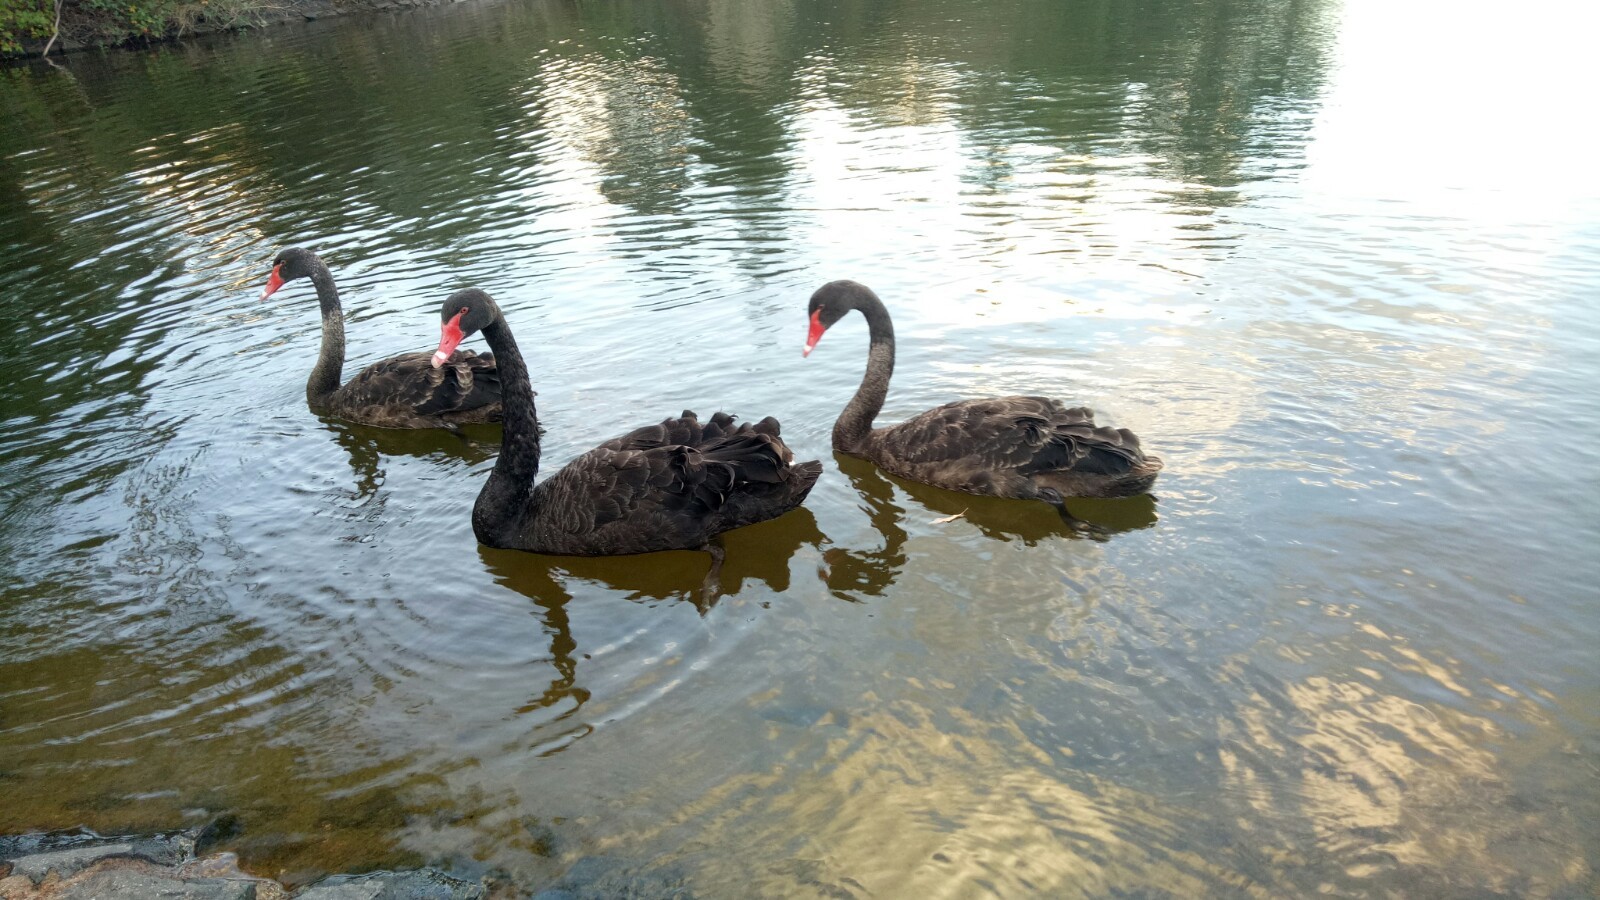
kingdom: Animalia
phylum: Chordata
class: Aves
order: Anseriformes
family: Anatidae
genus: Cygnus
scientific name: Cygnus atratus
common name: Black swan
